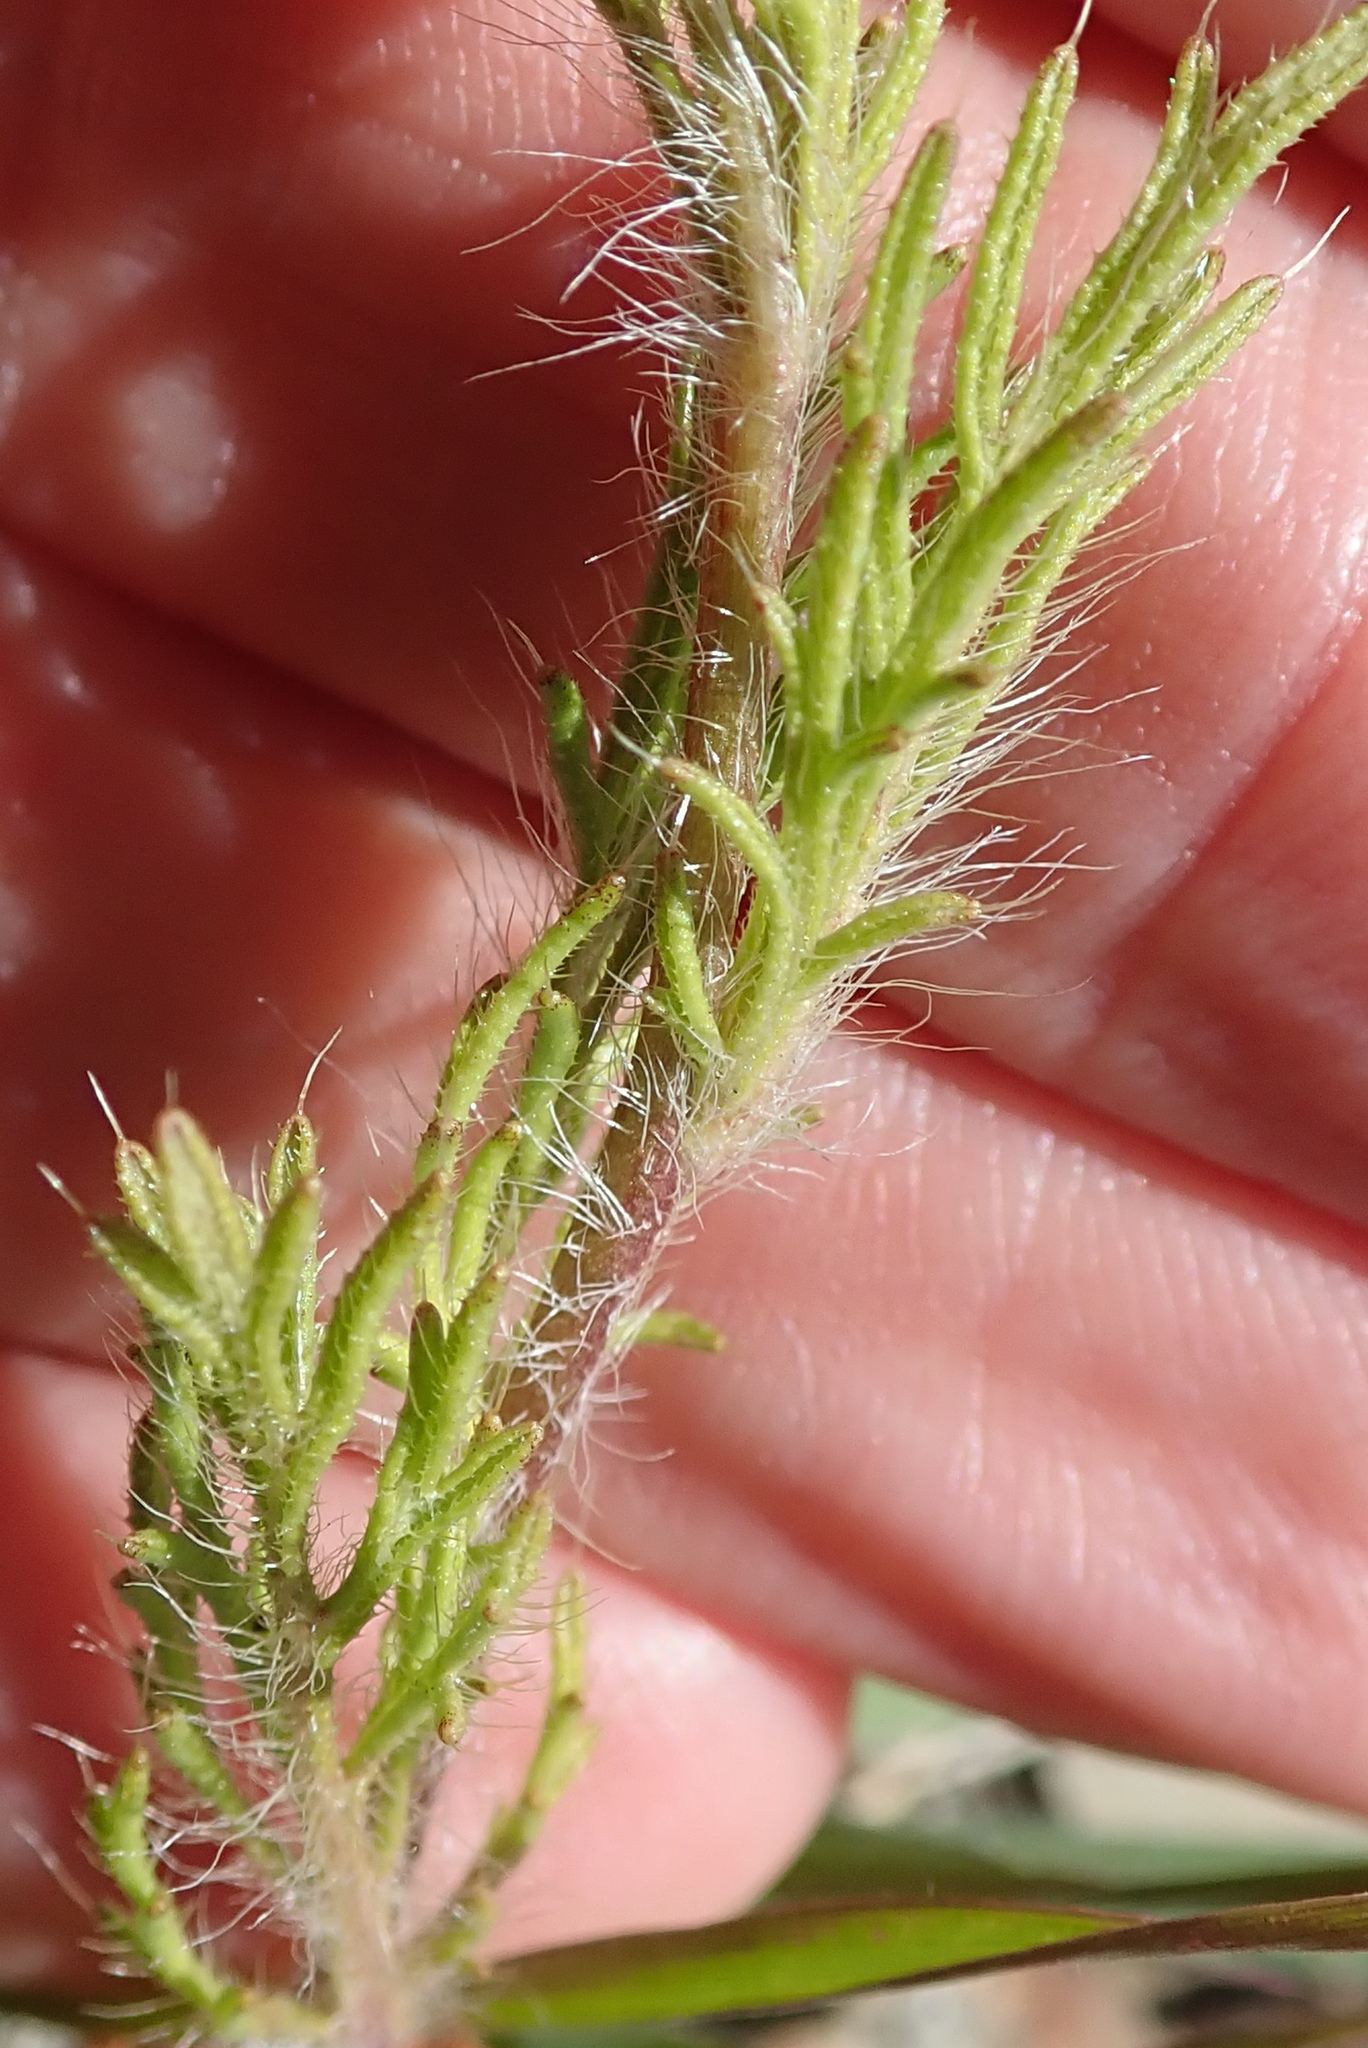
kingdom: Plantae
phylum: Tracheophyta
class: Magnoliopsida
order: Ranunculales
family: Papaveraceae
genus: Roemeria
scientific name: Roemeria hispida
